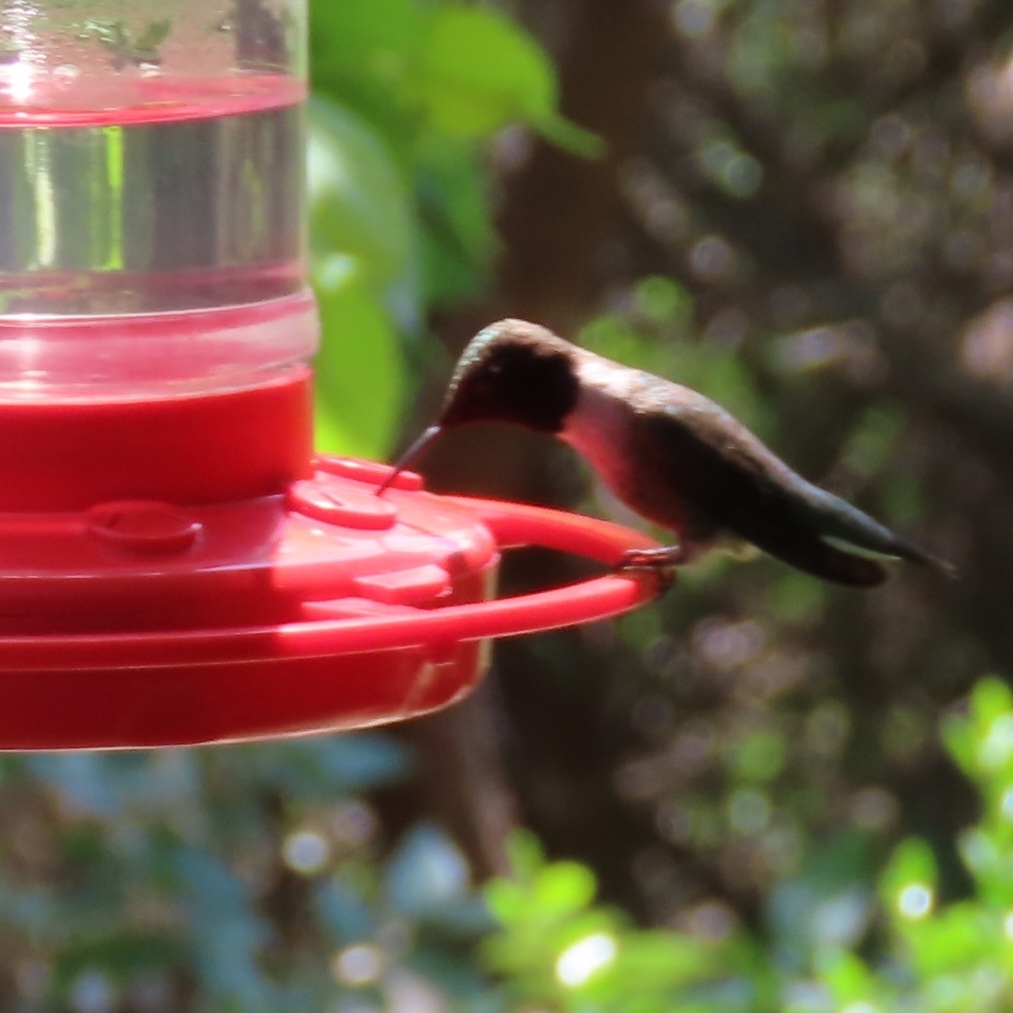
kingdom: Animalia
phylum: Chordata
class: Aves
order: Apodiformes
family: Trochilidae
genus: Archilochus
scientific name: Archilochus alexandri
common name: Black-chinned hummingbird
